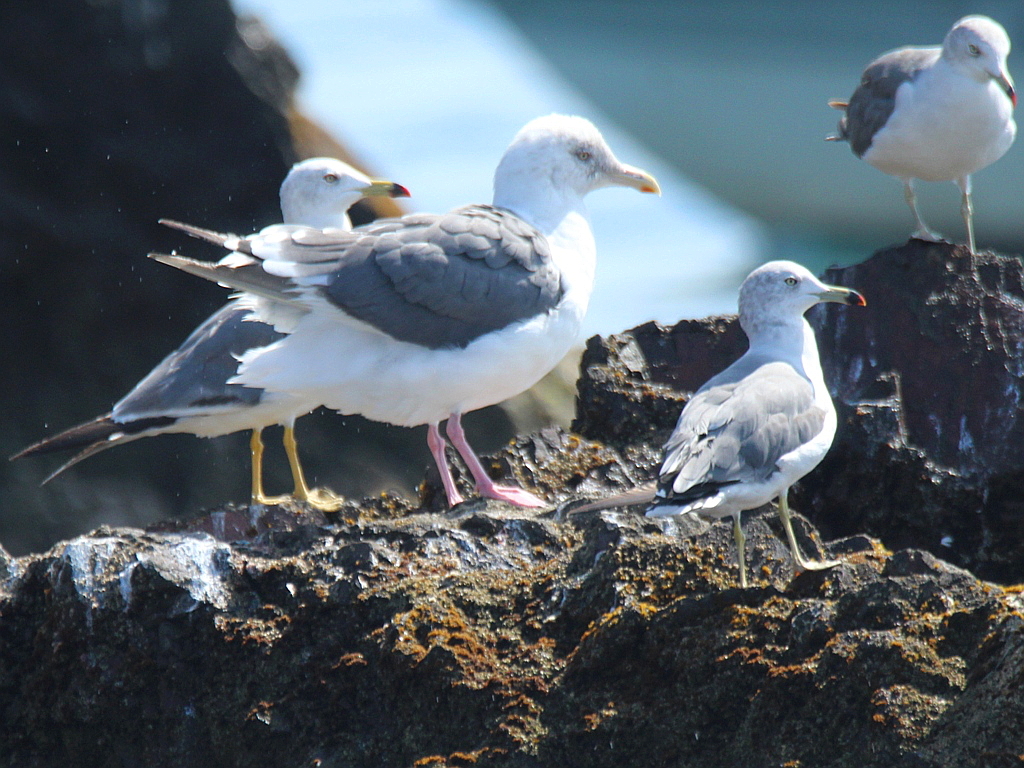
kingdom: Animalia
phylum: Chordata
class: Aves
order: Charadriiformes
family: Laridae
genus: Larus
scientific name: Larus schistisagus
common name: Slaty-backed gull
